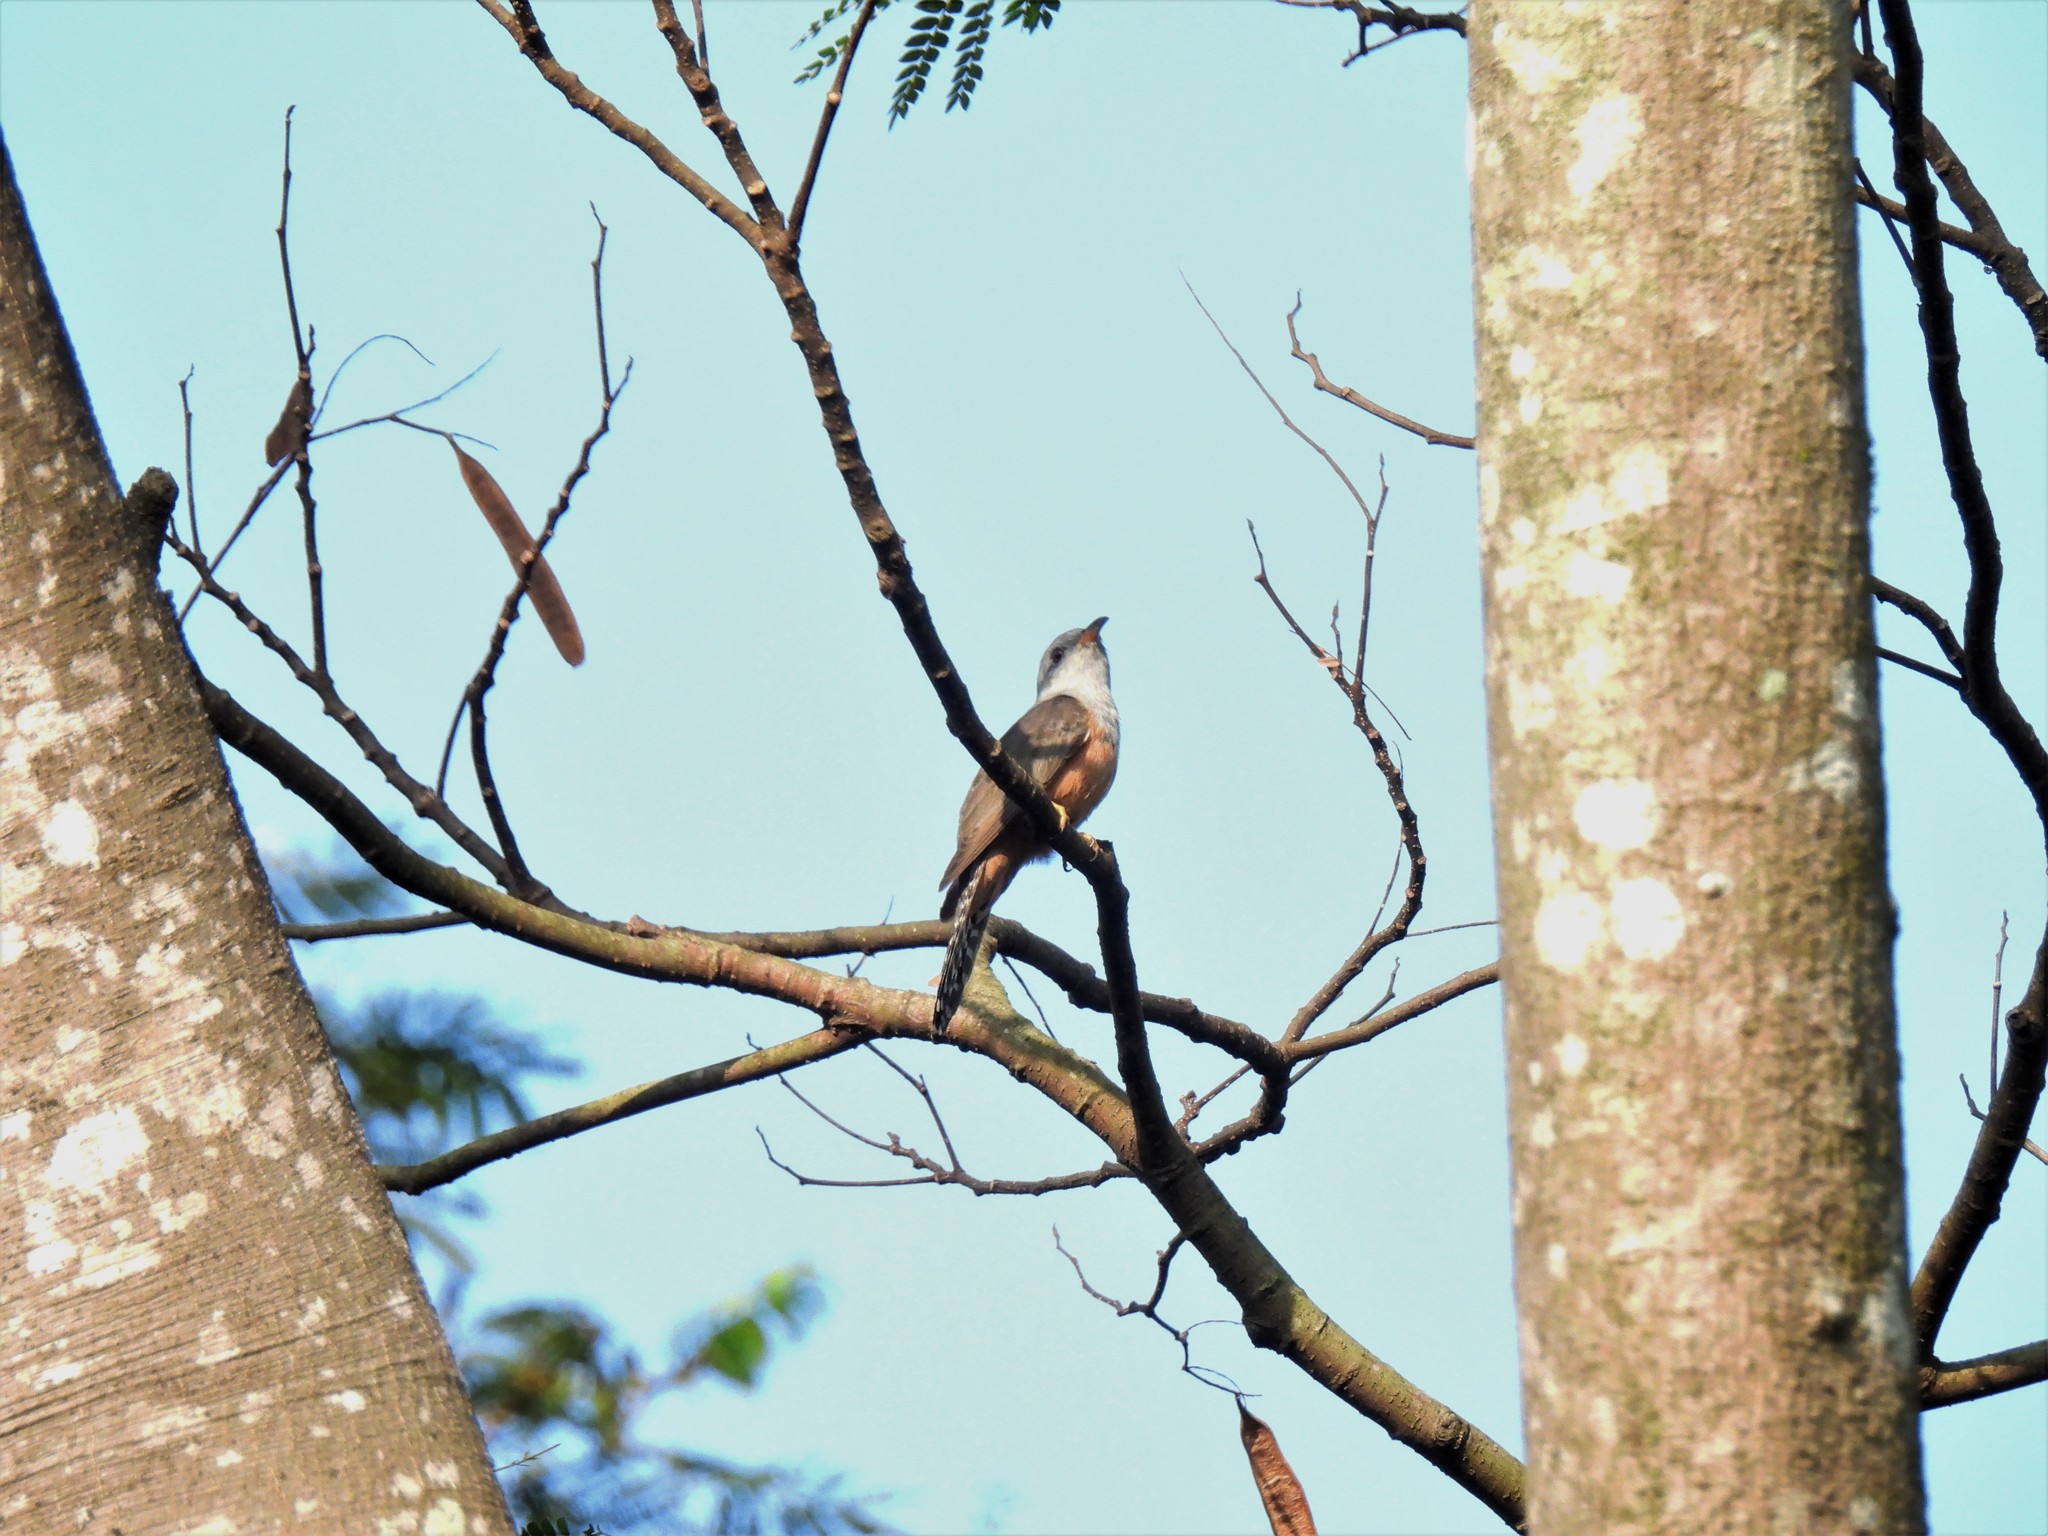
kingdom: Animalia
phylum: Chordata
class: Aves
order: Cuculiformes
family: Cuculidae
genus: Cacomantis
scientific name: Cacomantis merulinus
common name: Plaintive cuckoo
